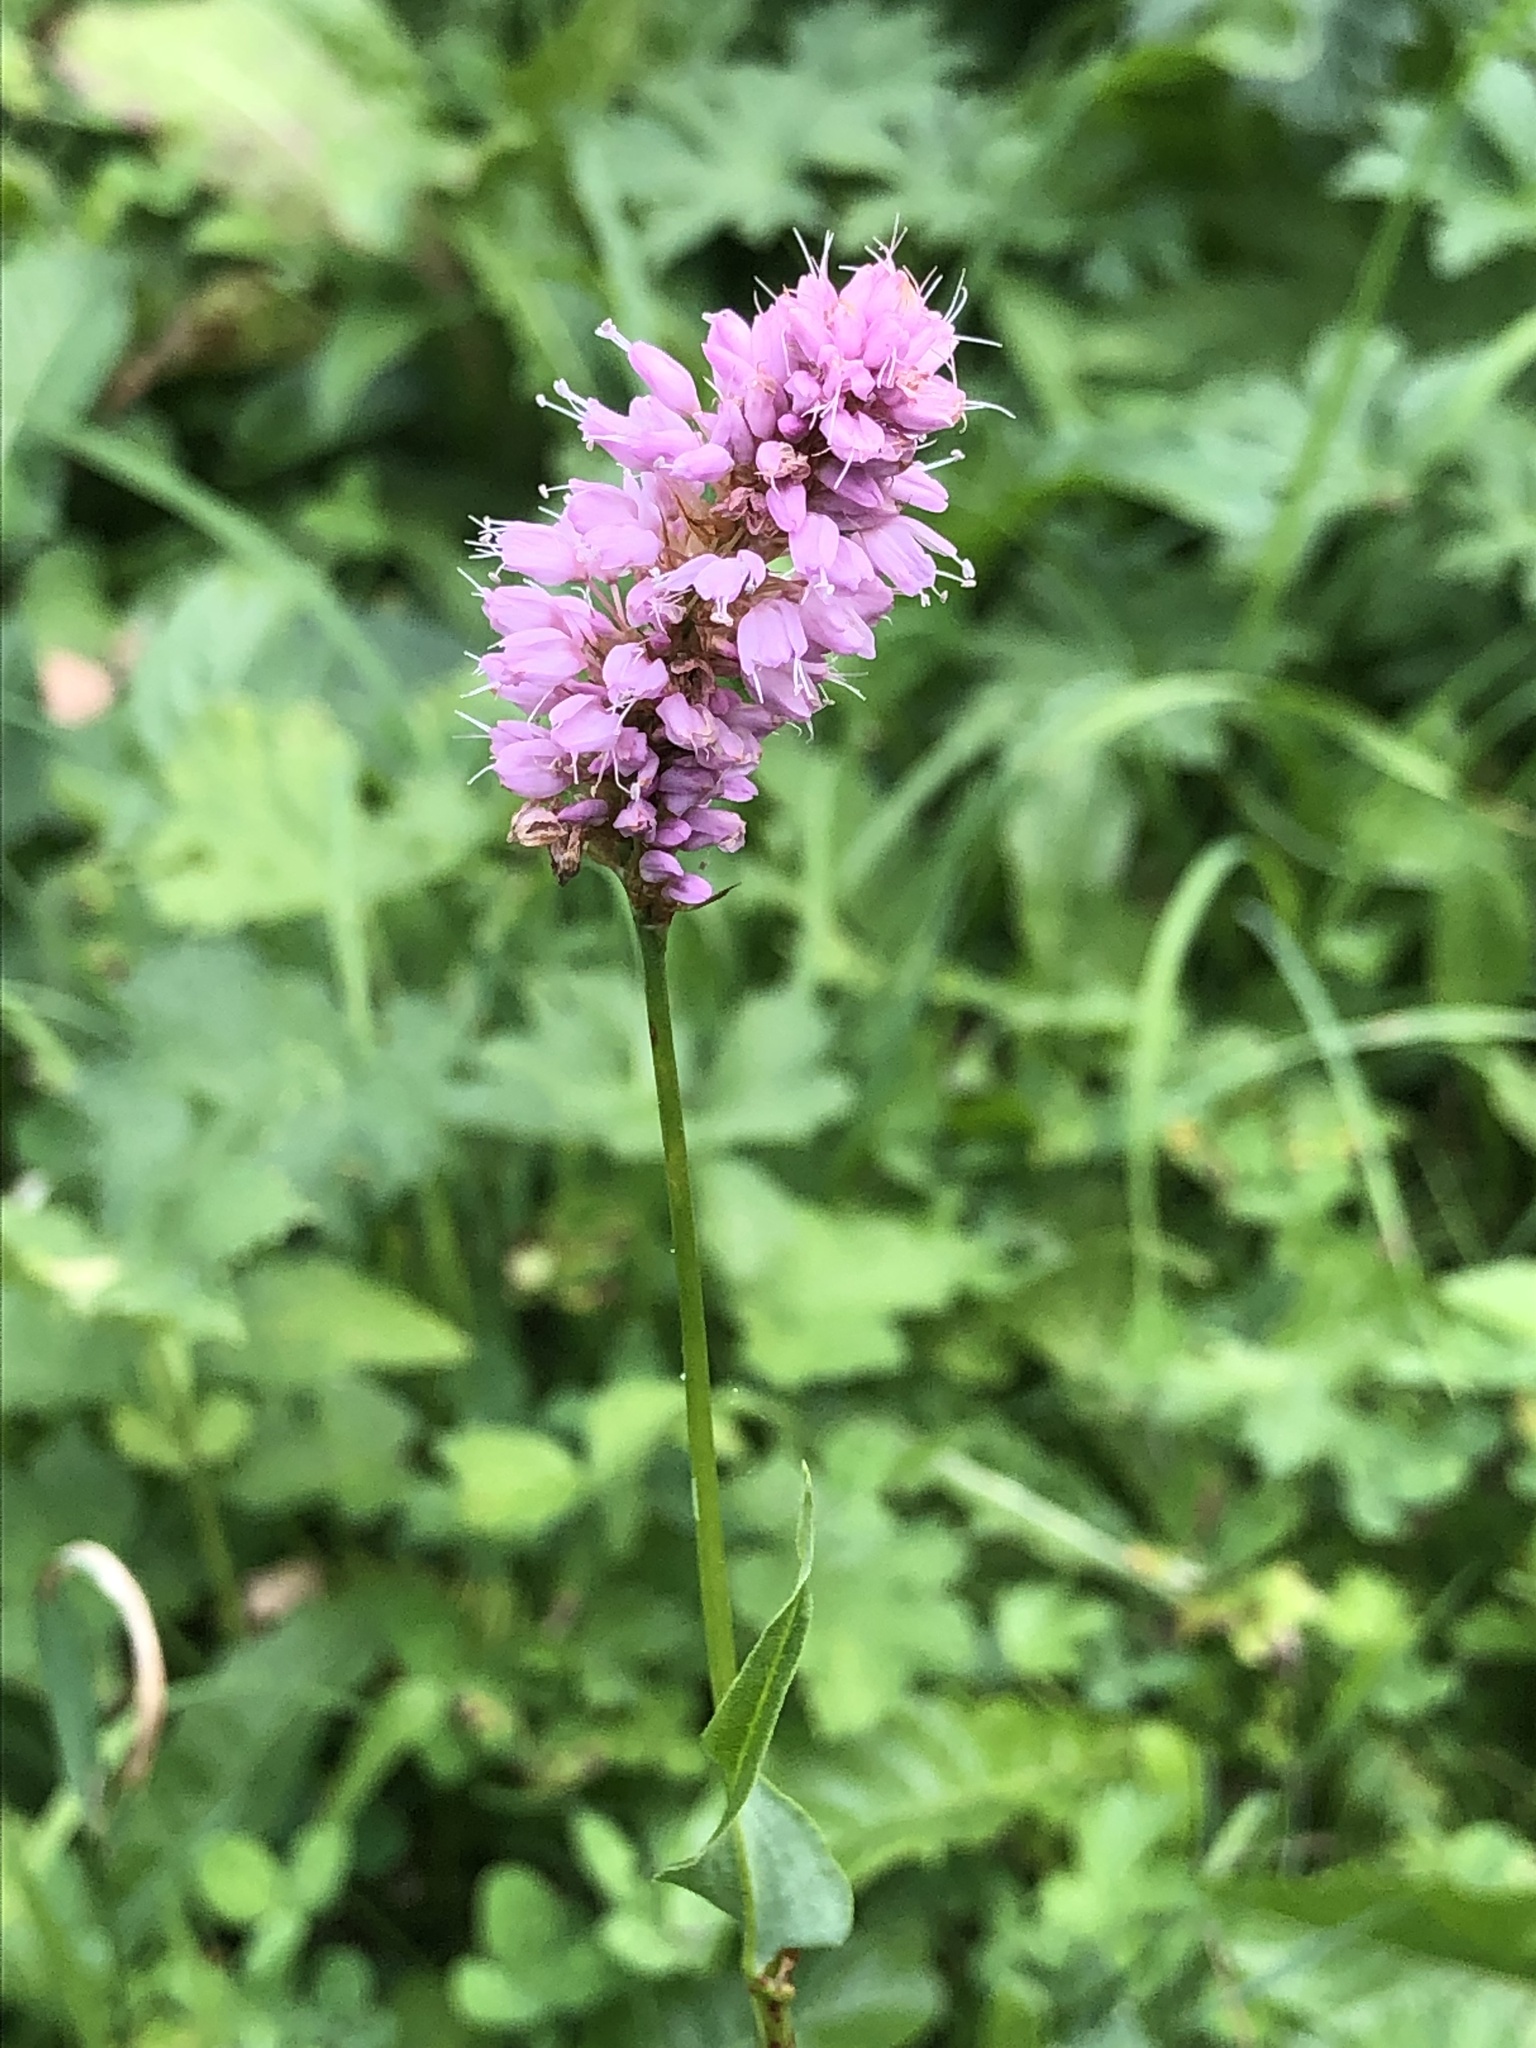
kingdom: Plantae
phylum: Tracheophyta
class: Magnoliopsida
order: Caryophyllales
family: Polygonaceae
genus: Bistorta
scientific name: Bistorta officinalis
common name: Common bistort
